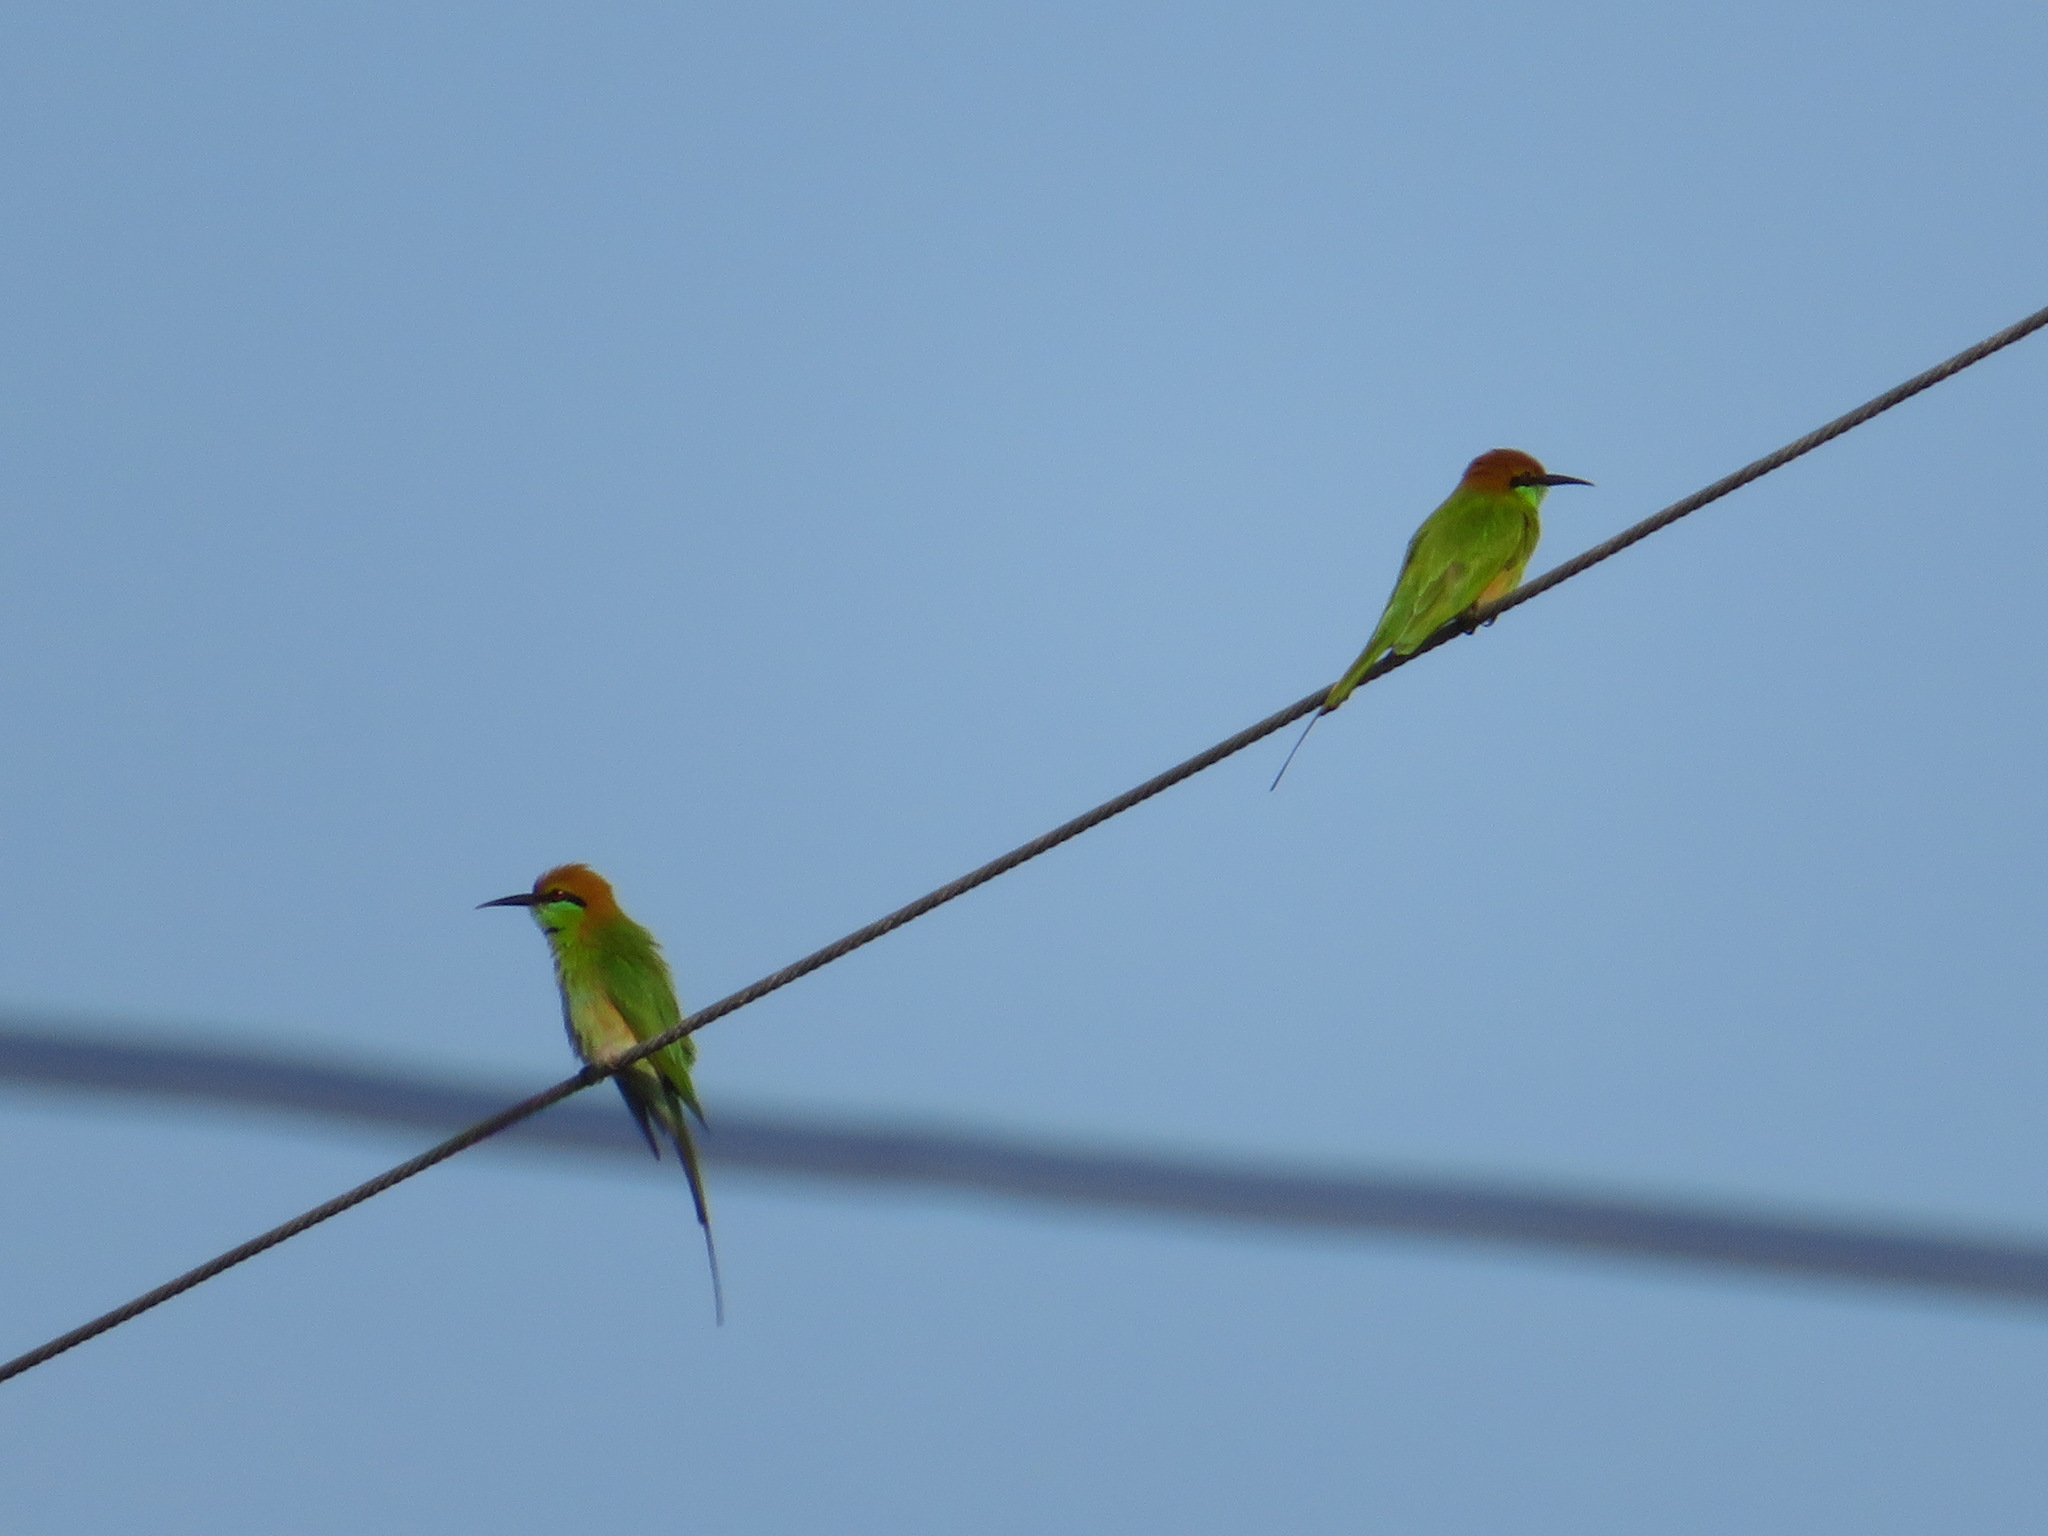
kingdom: Animalia
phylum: Chordata
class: Aves
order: Coraciiformes
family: Meropidae
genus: Merops
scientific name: Merops orientalis
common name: Green bee-eater
